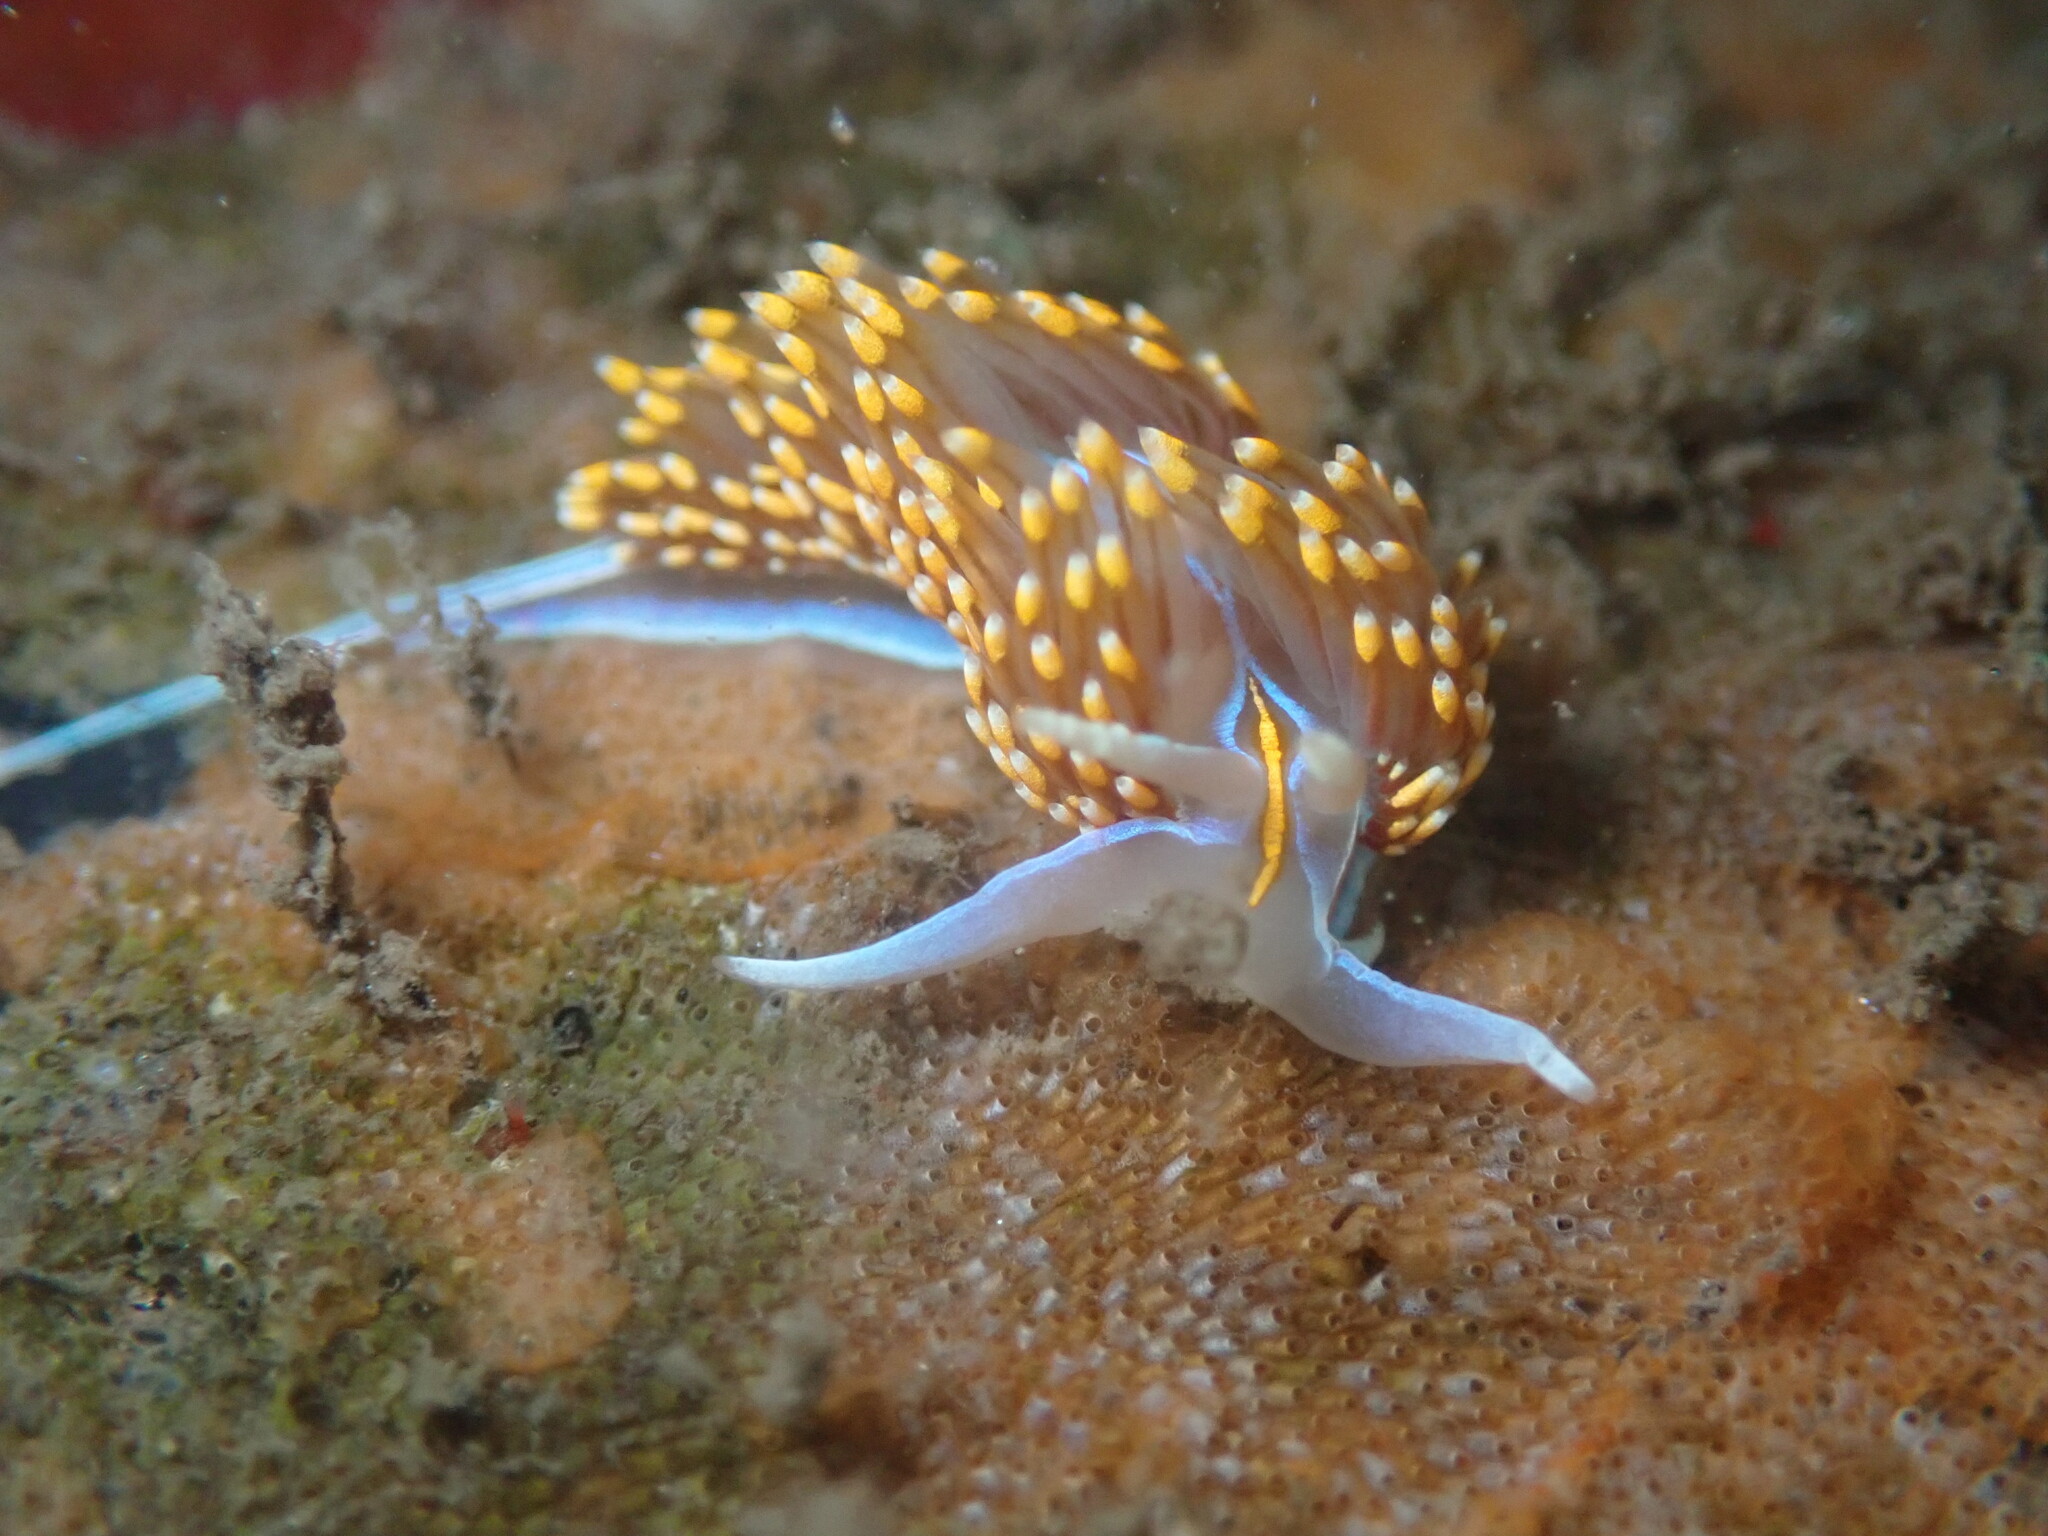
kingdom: Animalia
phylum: Mollusca
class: Gastropoda
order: Nudibranchia
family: Myrrhinidae
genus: Hermissenda
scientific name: Hermissenda opalescens
